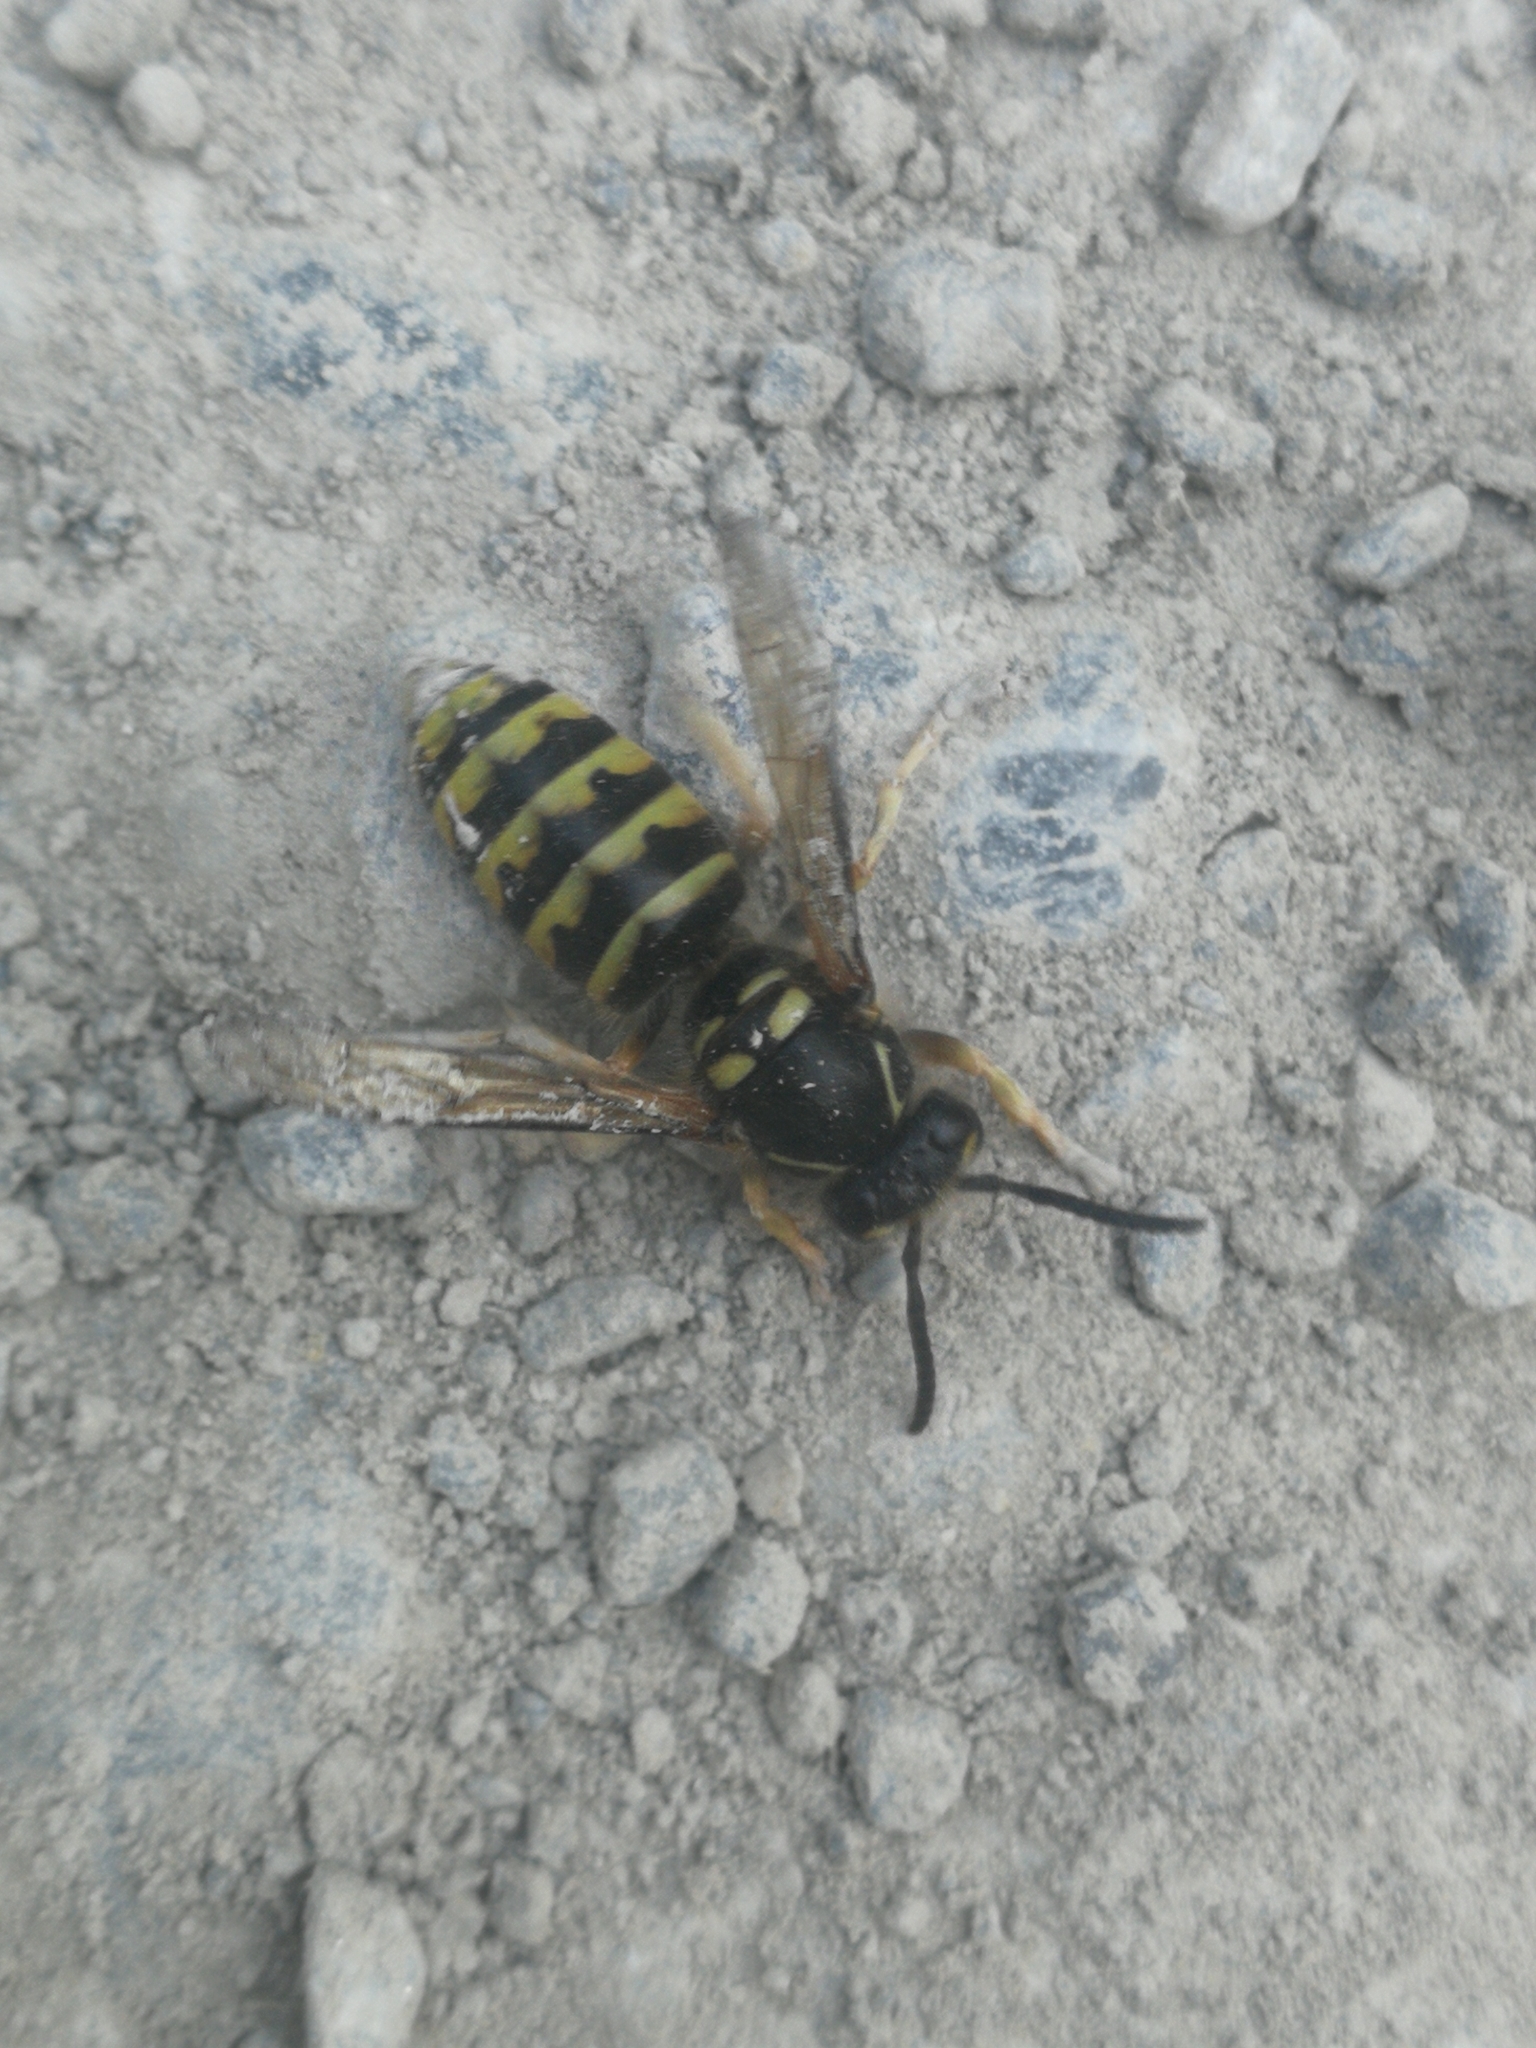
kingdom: Animalia
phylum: Arthropoda
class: Insecta
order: Hymenoptera
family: Vespidae
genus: Dolichovespula
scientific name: Dolichovespula media
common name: Median wasp
